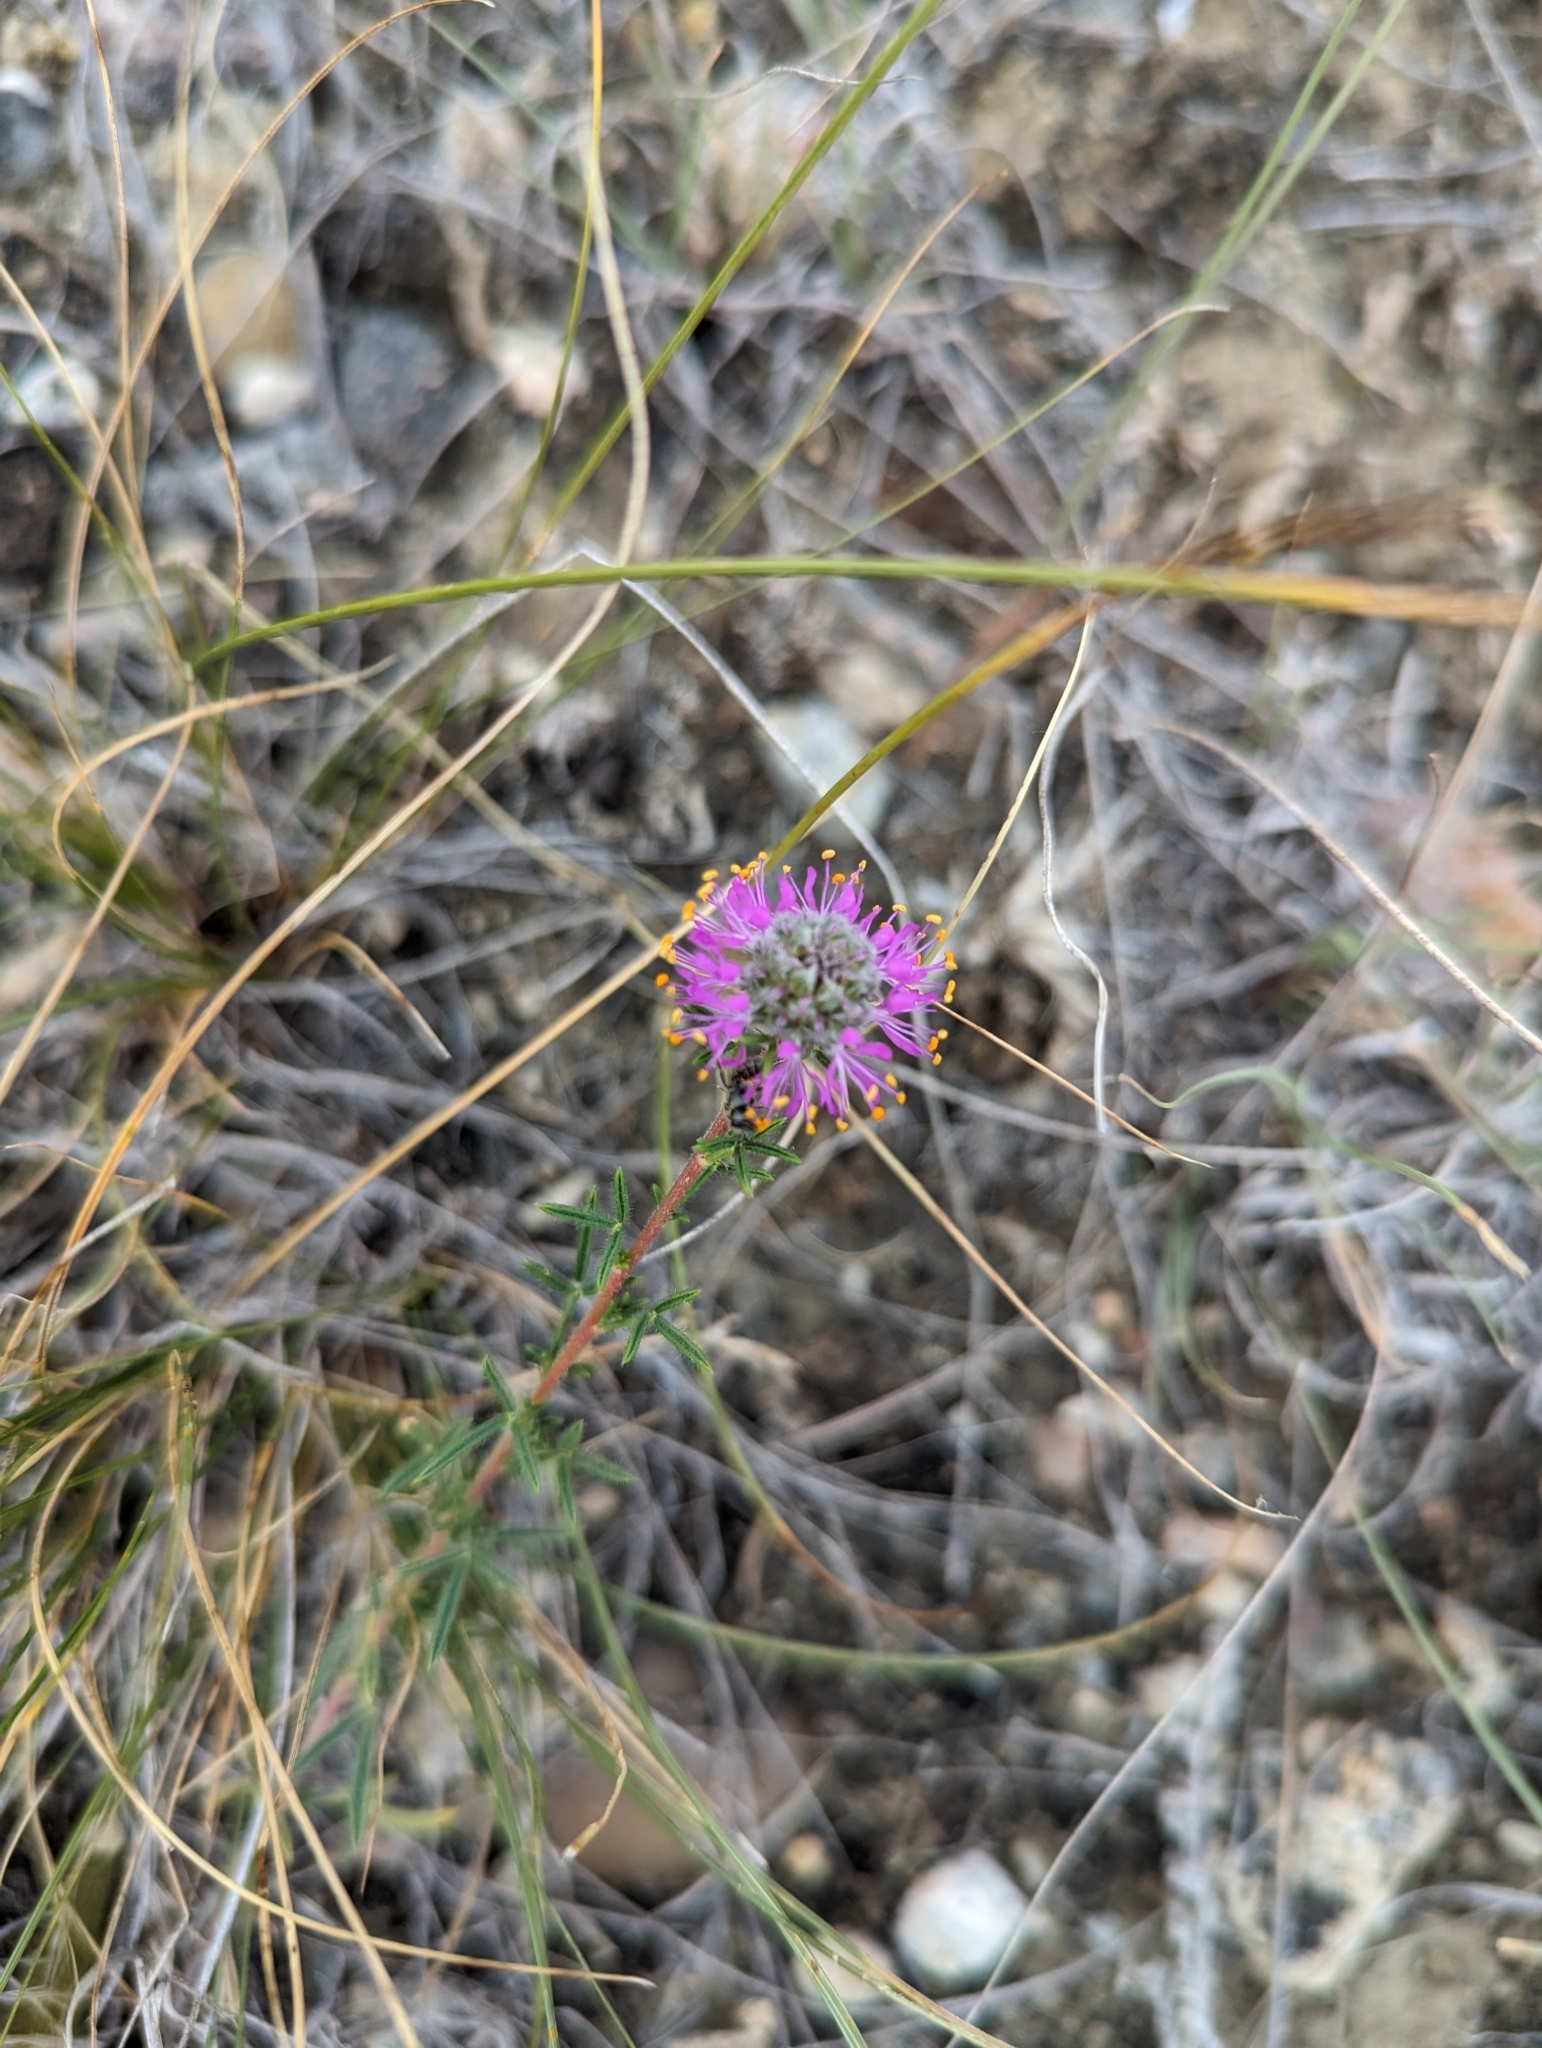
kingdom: Plantae
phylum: Tracheophyta
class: Magnoliopsida
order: Fabales
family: Fabaceae
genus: Dalea
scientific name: Dalea purpurea
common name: Purple prairie-clover
